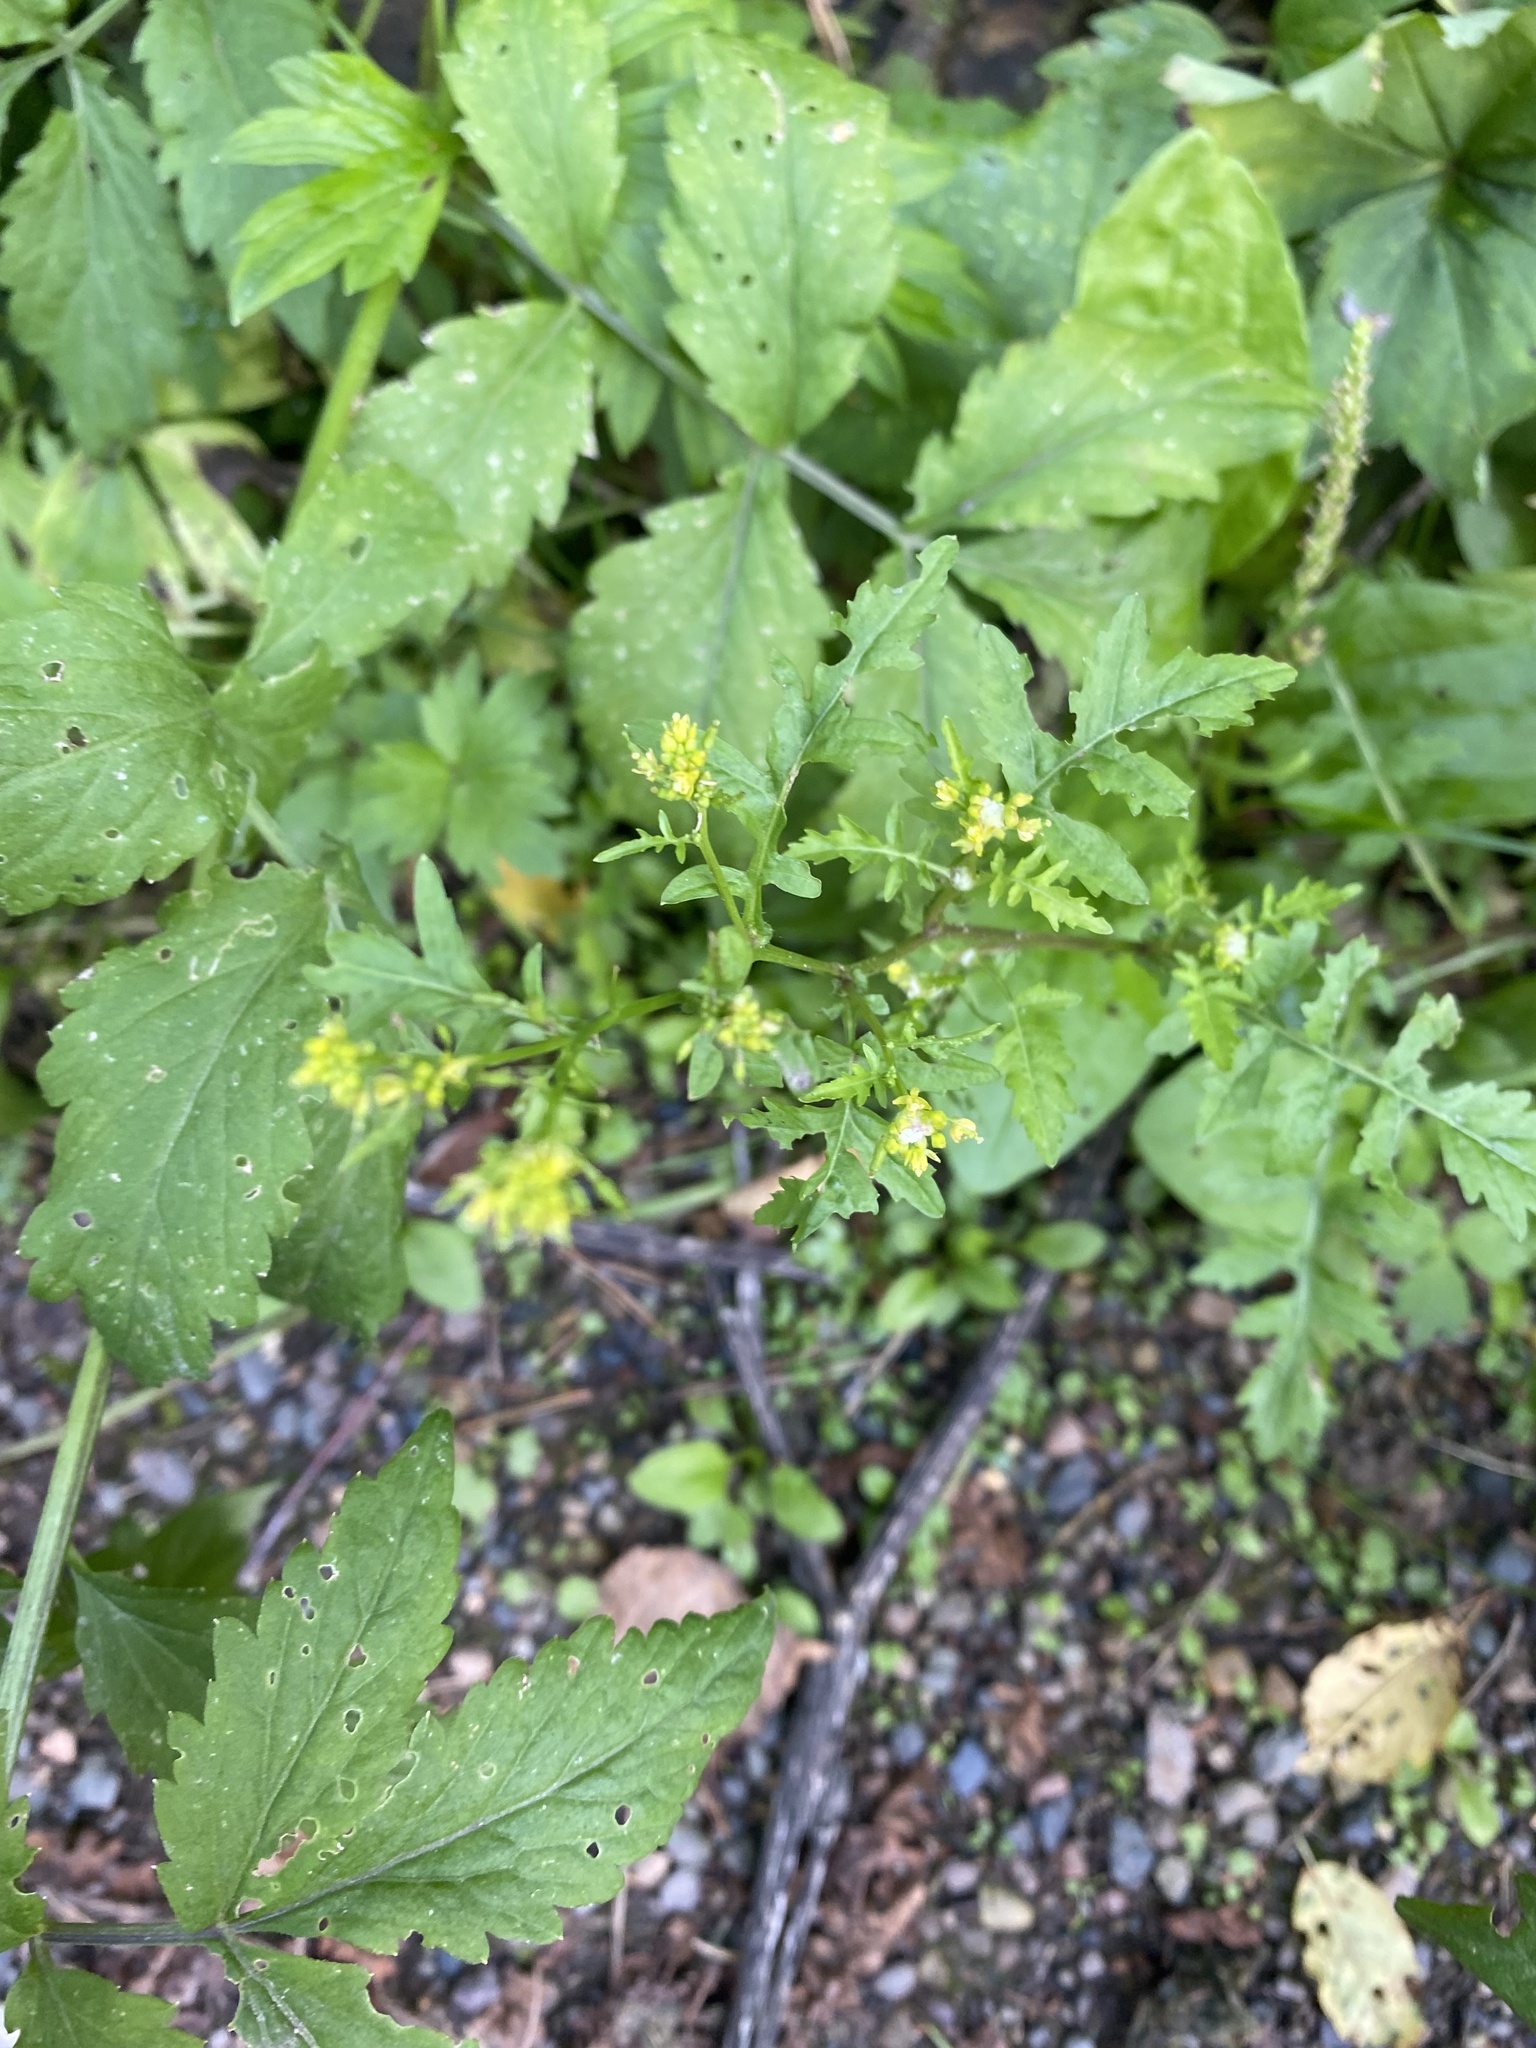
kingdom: Plantae
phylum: Tracheophyta
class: Magnoliopsida
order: Brassicales
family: Brassicaceae
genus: Rorippa
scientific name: Rorippa palustris
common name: Marsh yellow-cress
